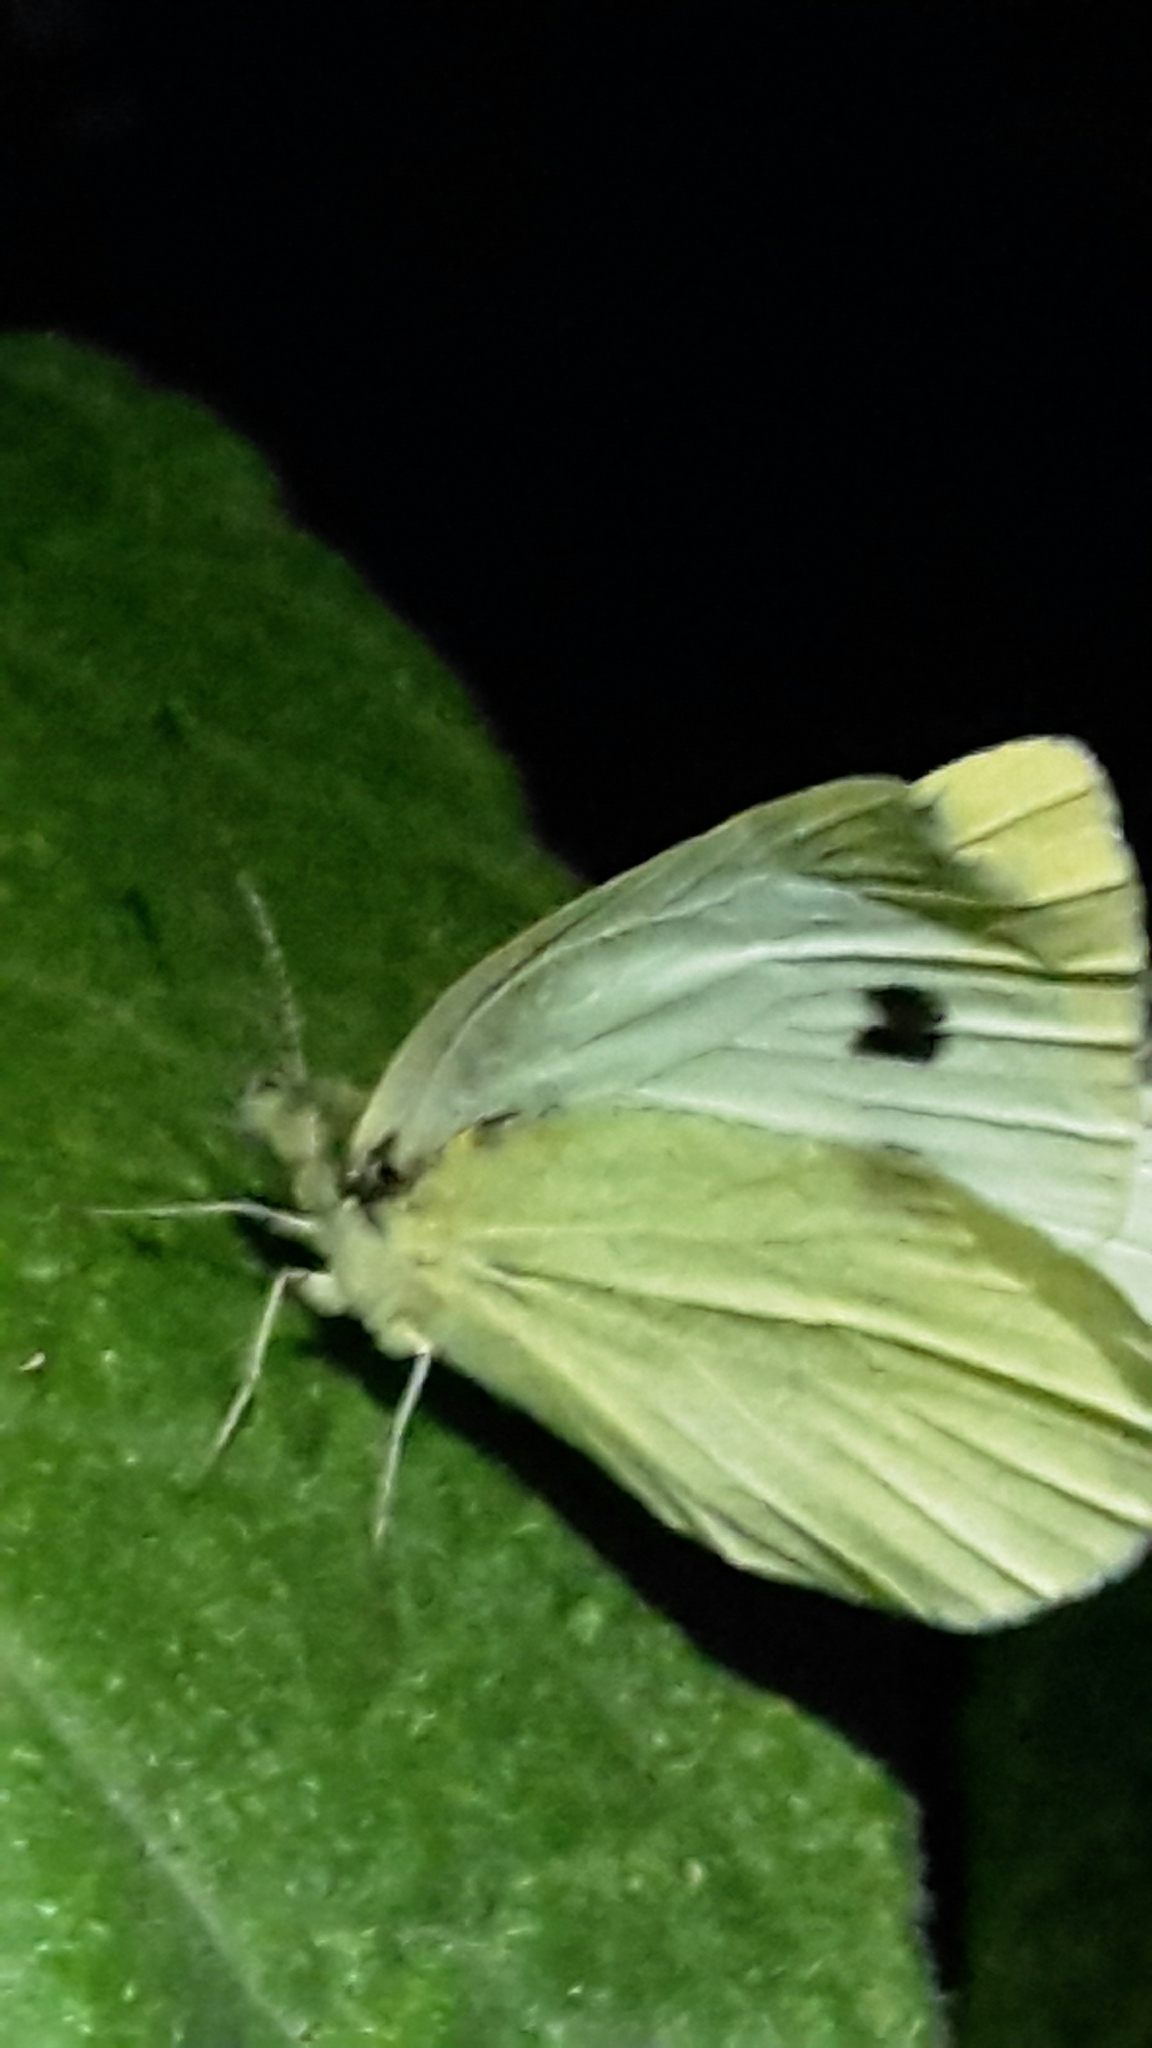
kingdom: Animalia
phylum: Arthropoda
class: Insecta
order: Lepidoptera
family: Pieridae
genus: Pieris
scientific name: Pieris rapae
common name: Small white
